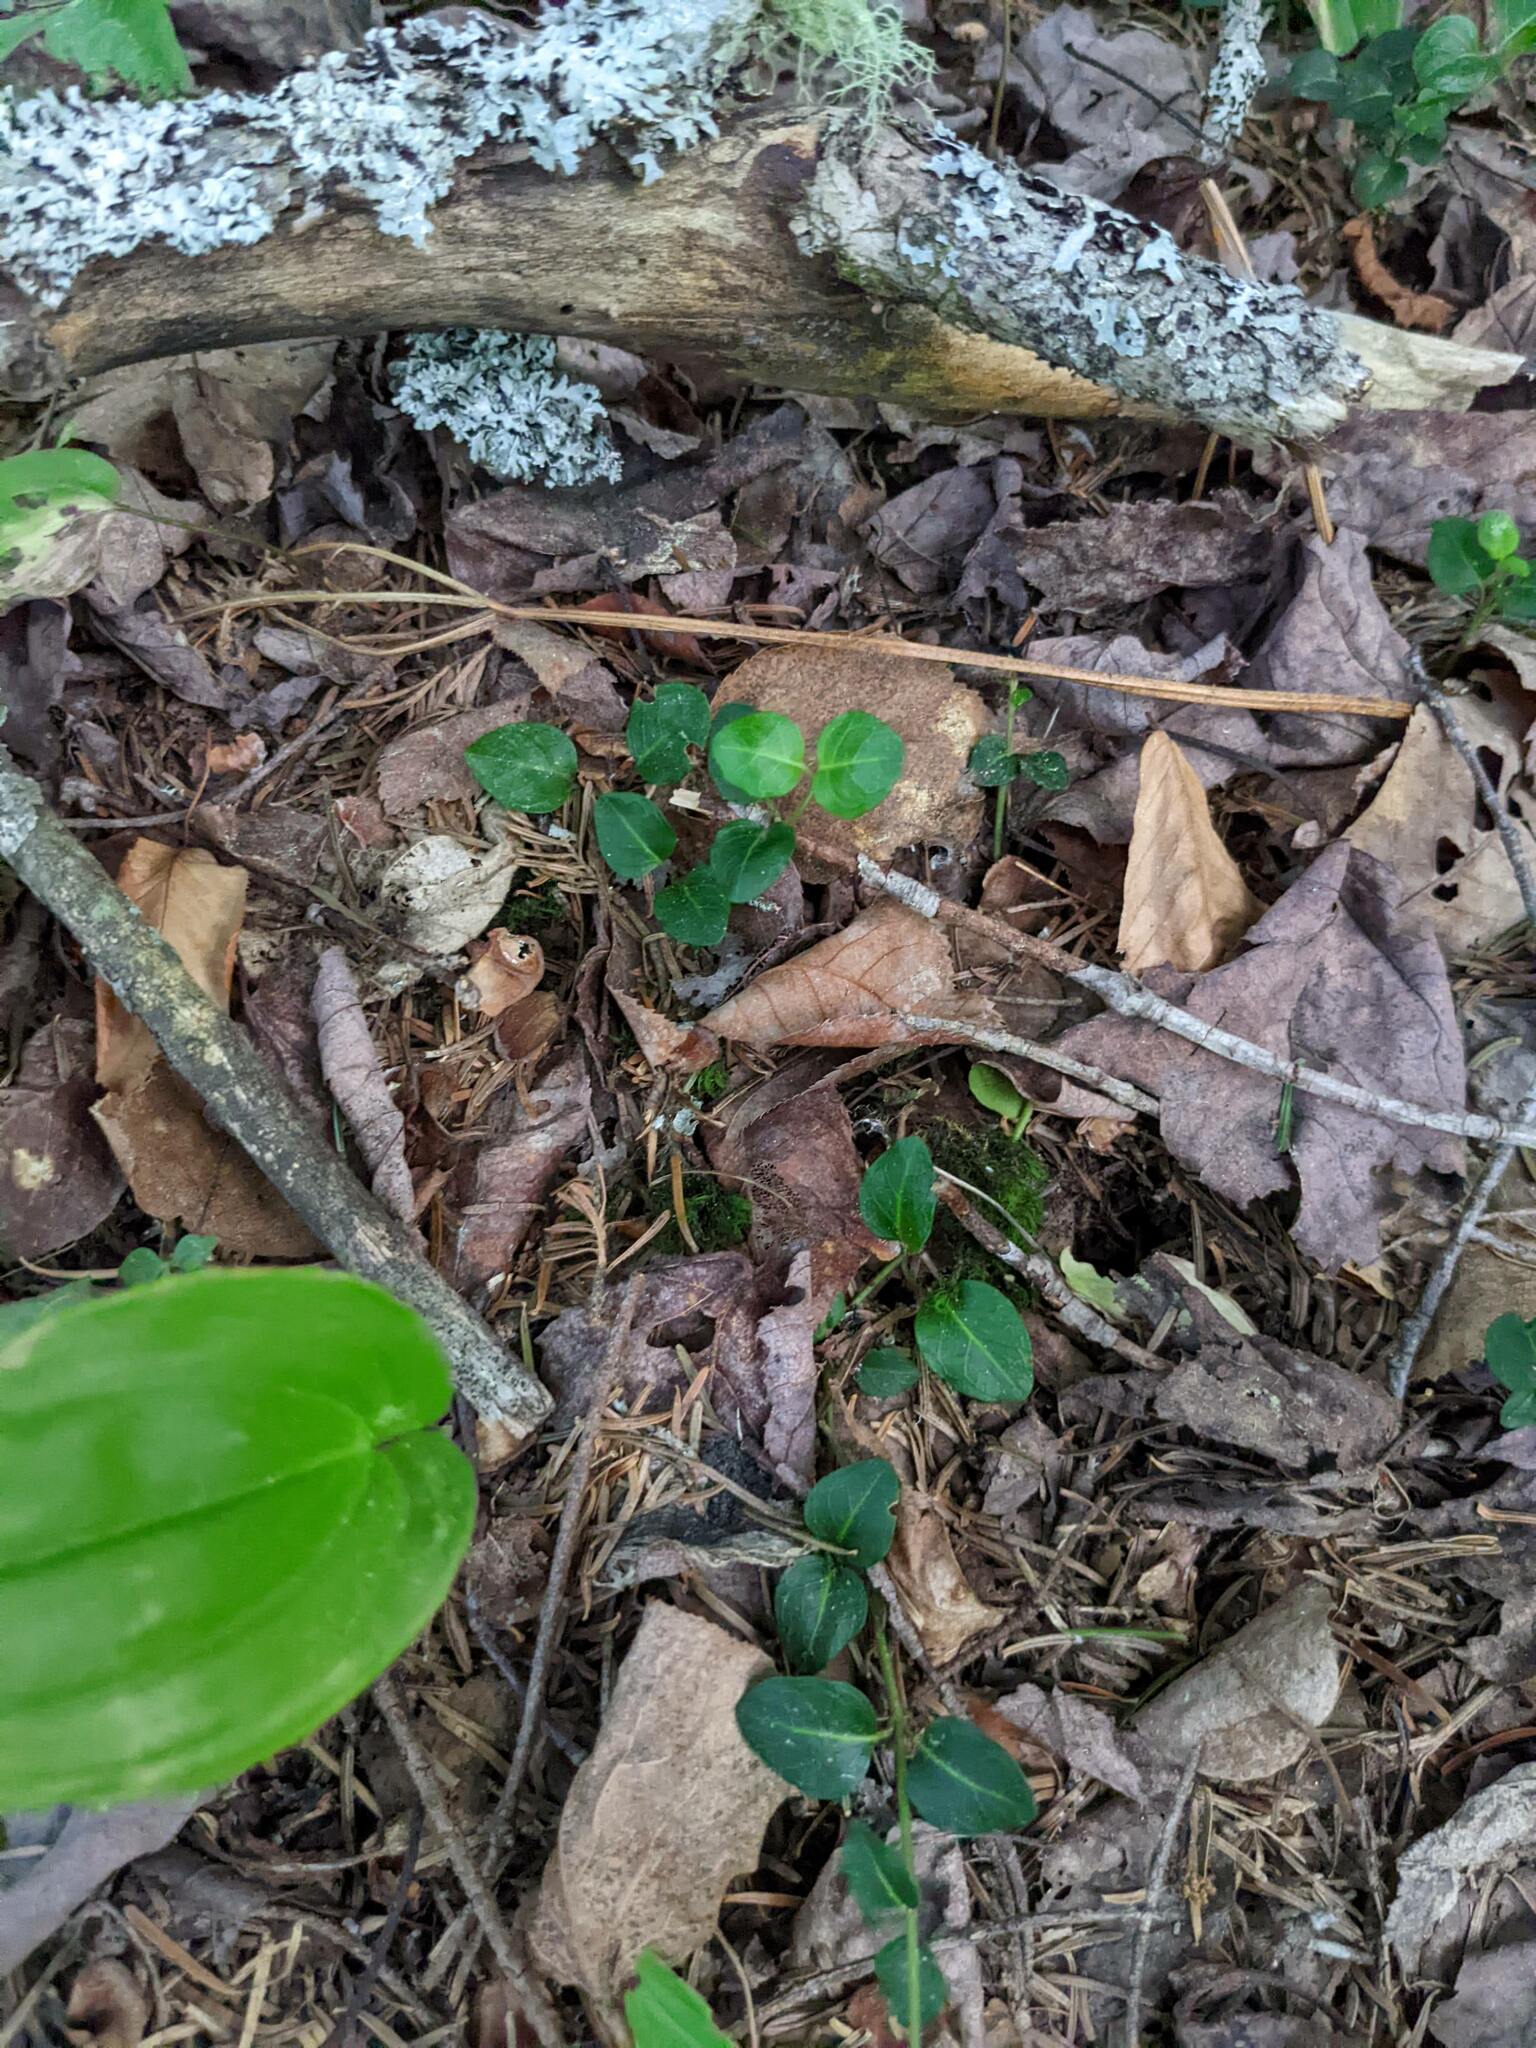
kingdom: Plantae
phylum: Tracheophyta
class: Magnoliopsida
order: Gentianales
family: Rubiaceae
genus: Mitchella
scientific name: Mitchella repens
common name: Partridge-berry
